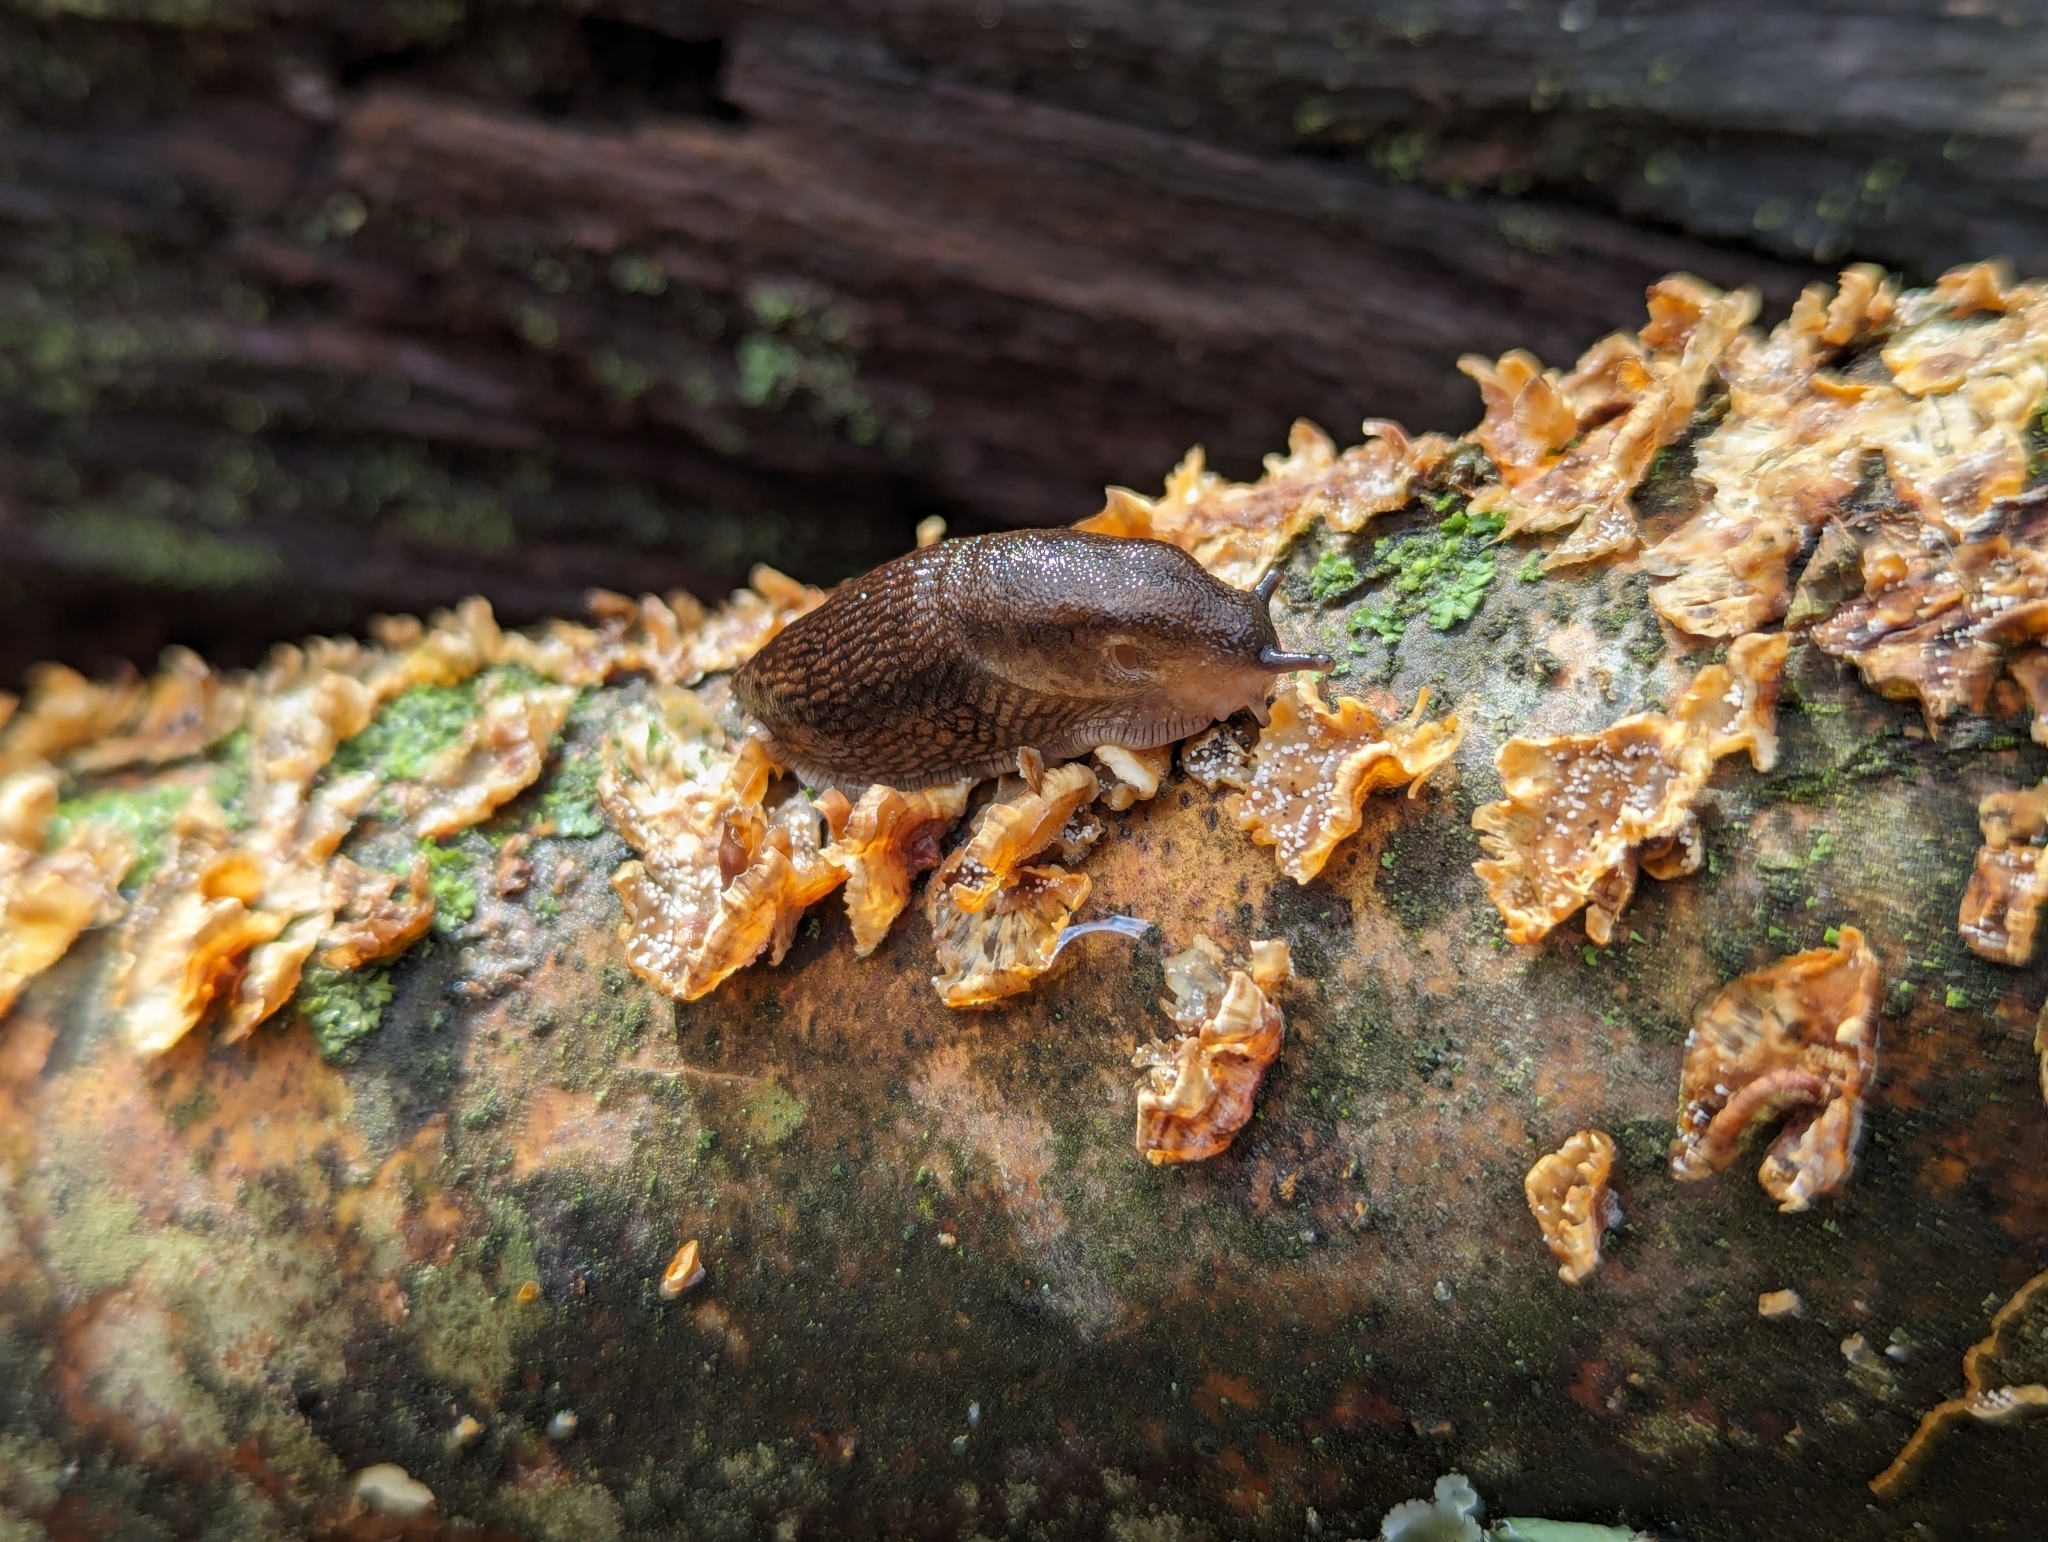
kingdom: Fungi
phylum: Basidiomycota
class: Agaricomycetes
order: Russulales
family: Stereaceae
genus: Stereum
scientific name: Stereum complicatum
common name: Crowded parchment
